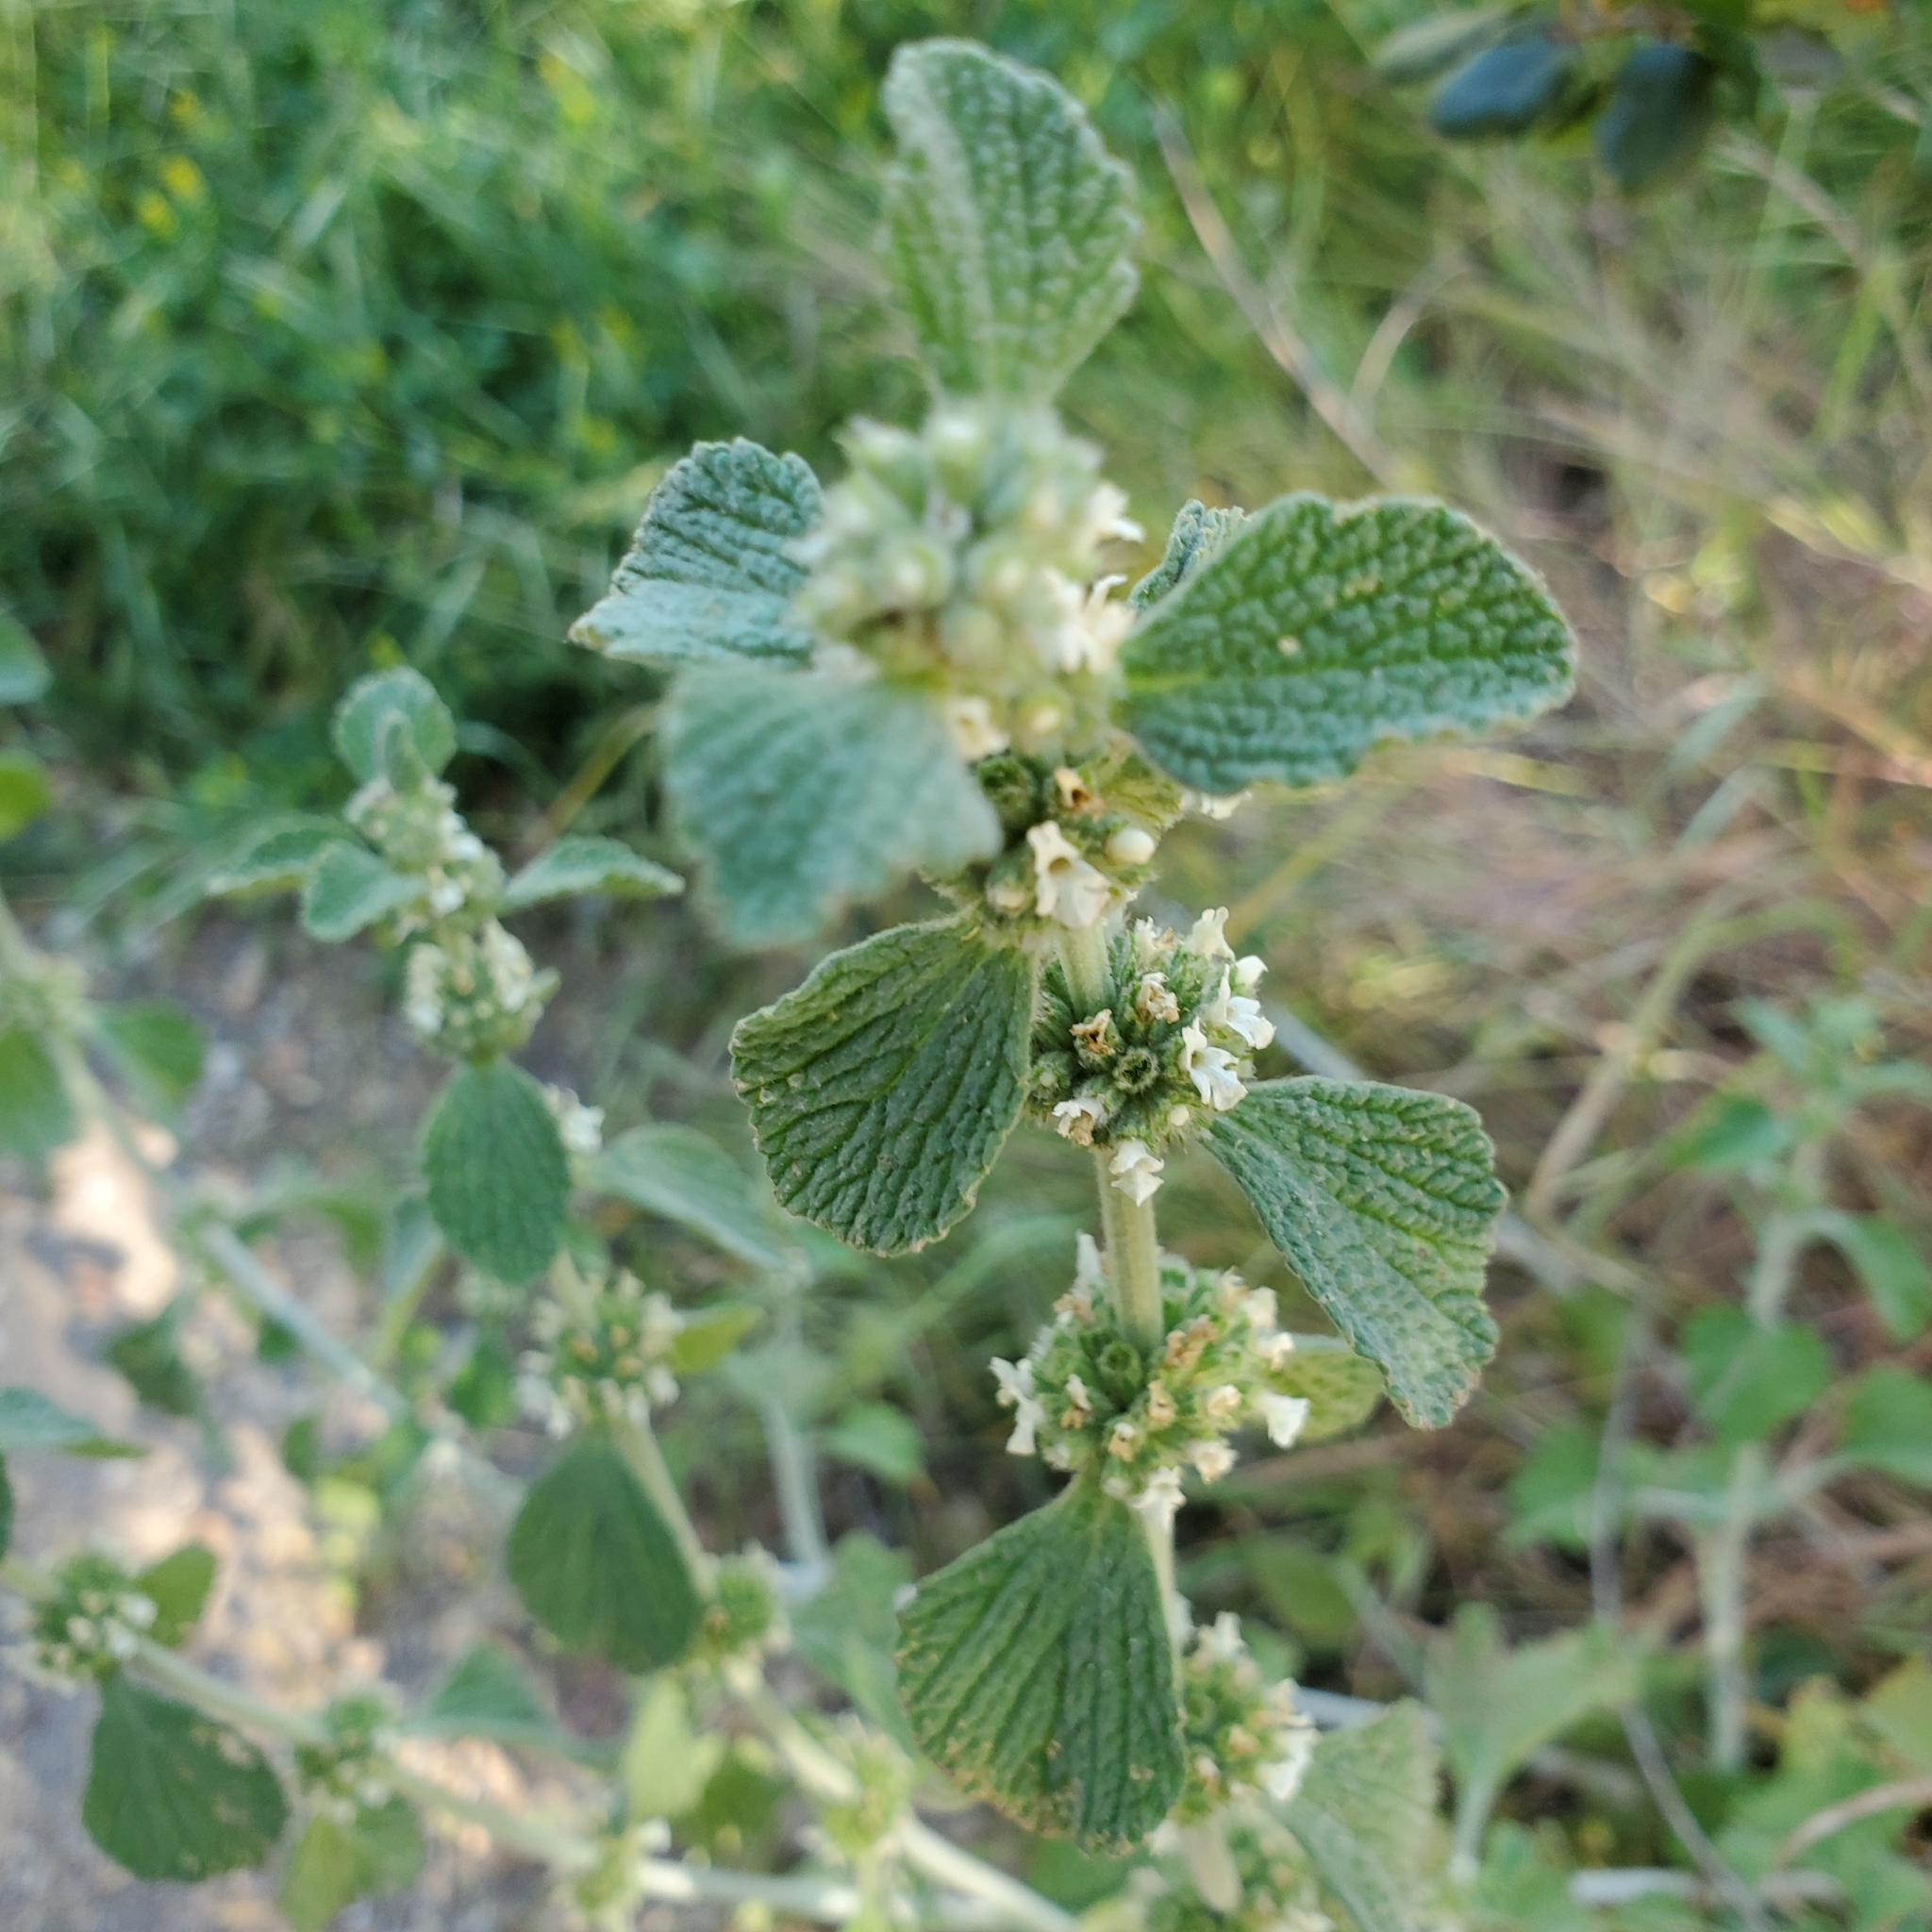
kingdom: Plantae
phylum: Tracheophyta
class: Magnoliopsida
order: Lamiales
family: Lamiaceae
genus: Marrubium
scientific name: Marrubium vulgare
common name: Horehound
